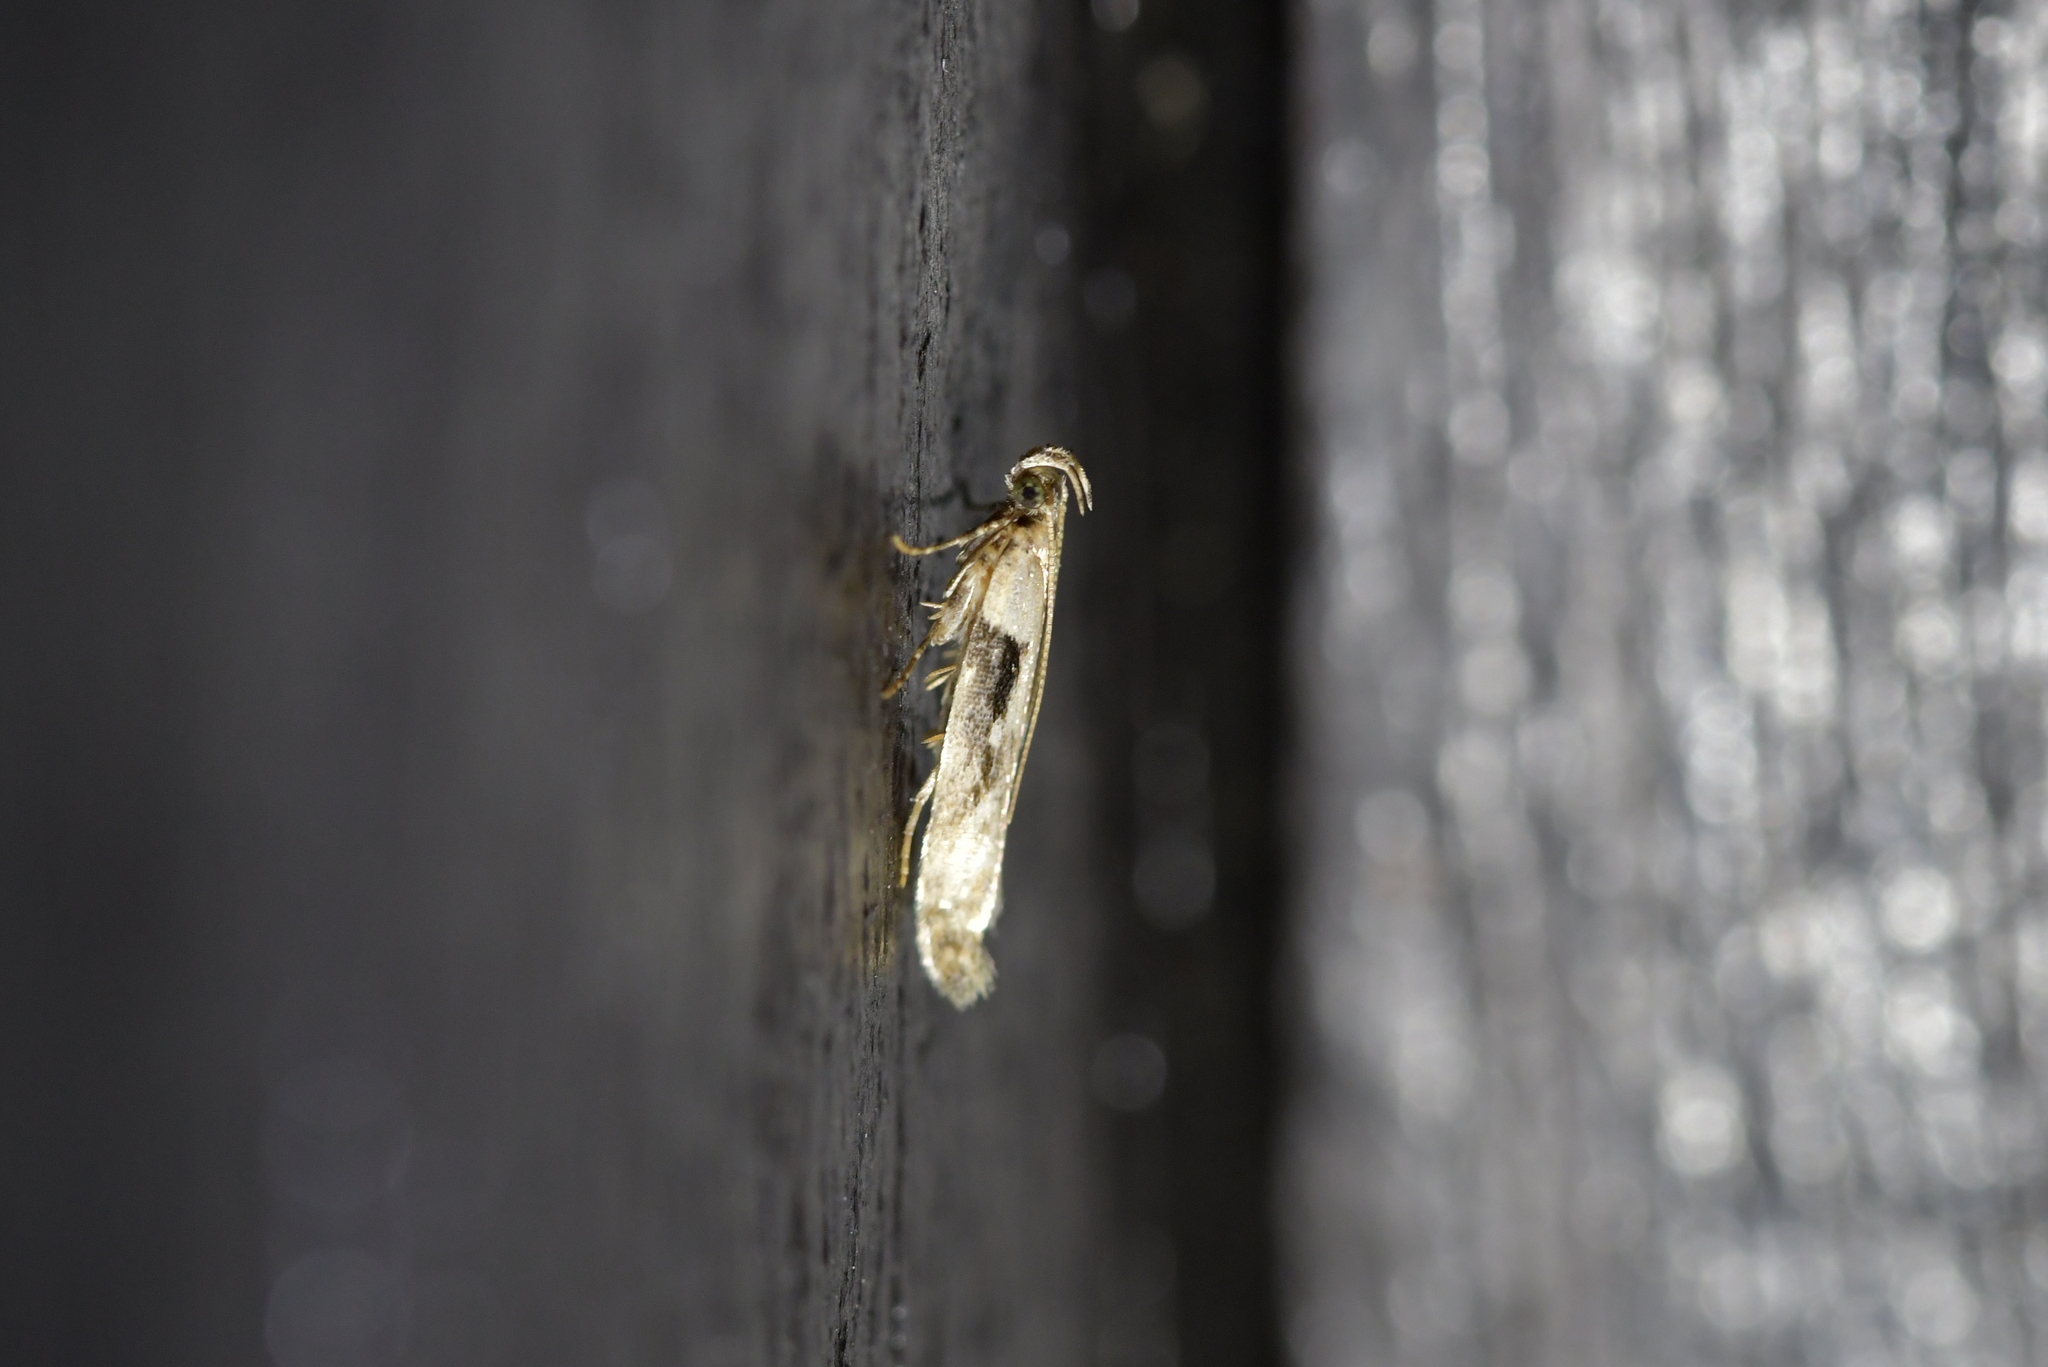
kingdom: Animalia
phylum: Arthropoda
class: Insecta
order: Lepidoptera
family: Gelechiidae
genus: Symmetrischema
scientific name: Symmetrischema tangolias
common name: Moth
